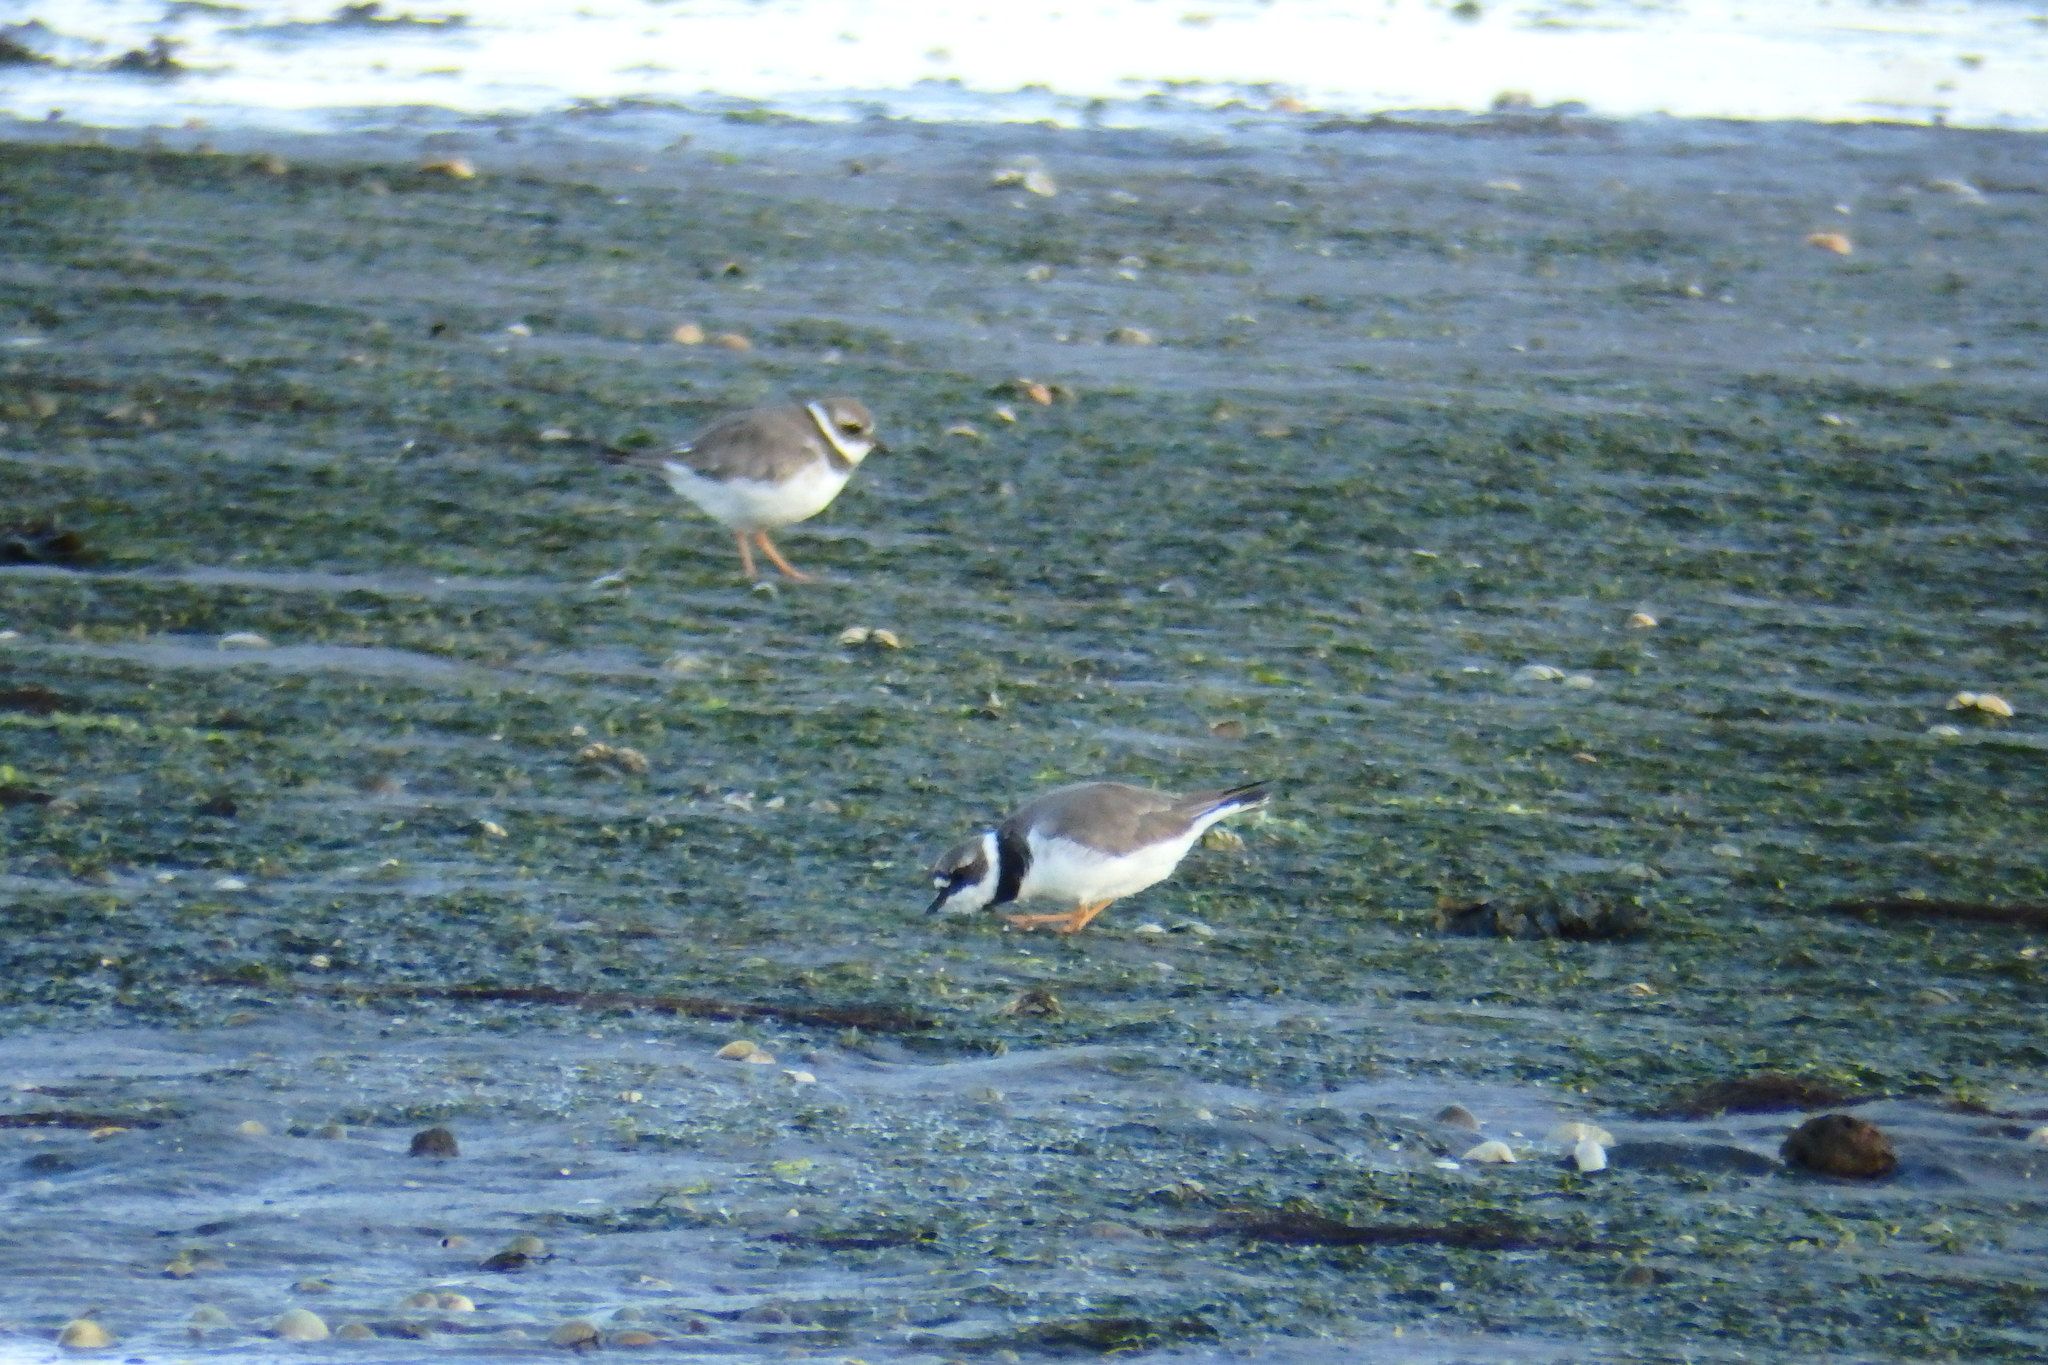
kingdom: Animalia
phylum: Chordata
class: Aves
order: Charadriiformes
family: Charadriidae
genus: Charadrius
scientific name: Charadrius hiaticula
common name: Common ringed plover
